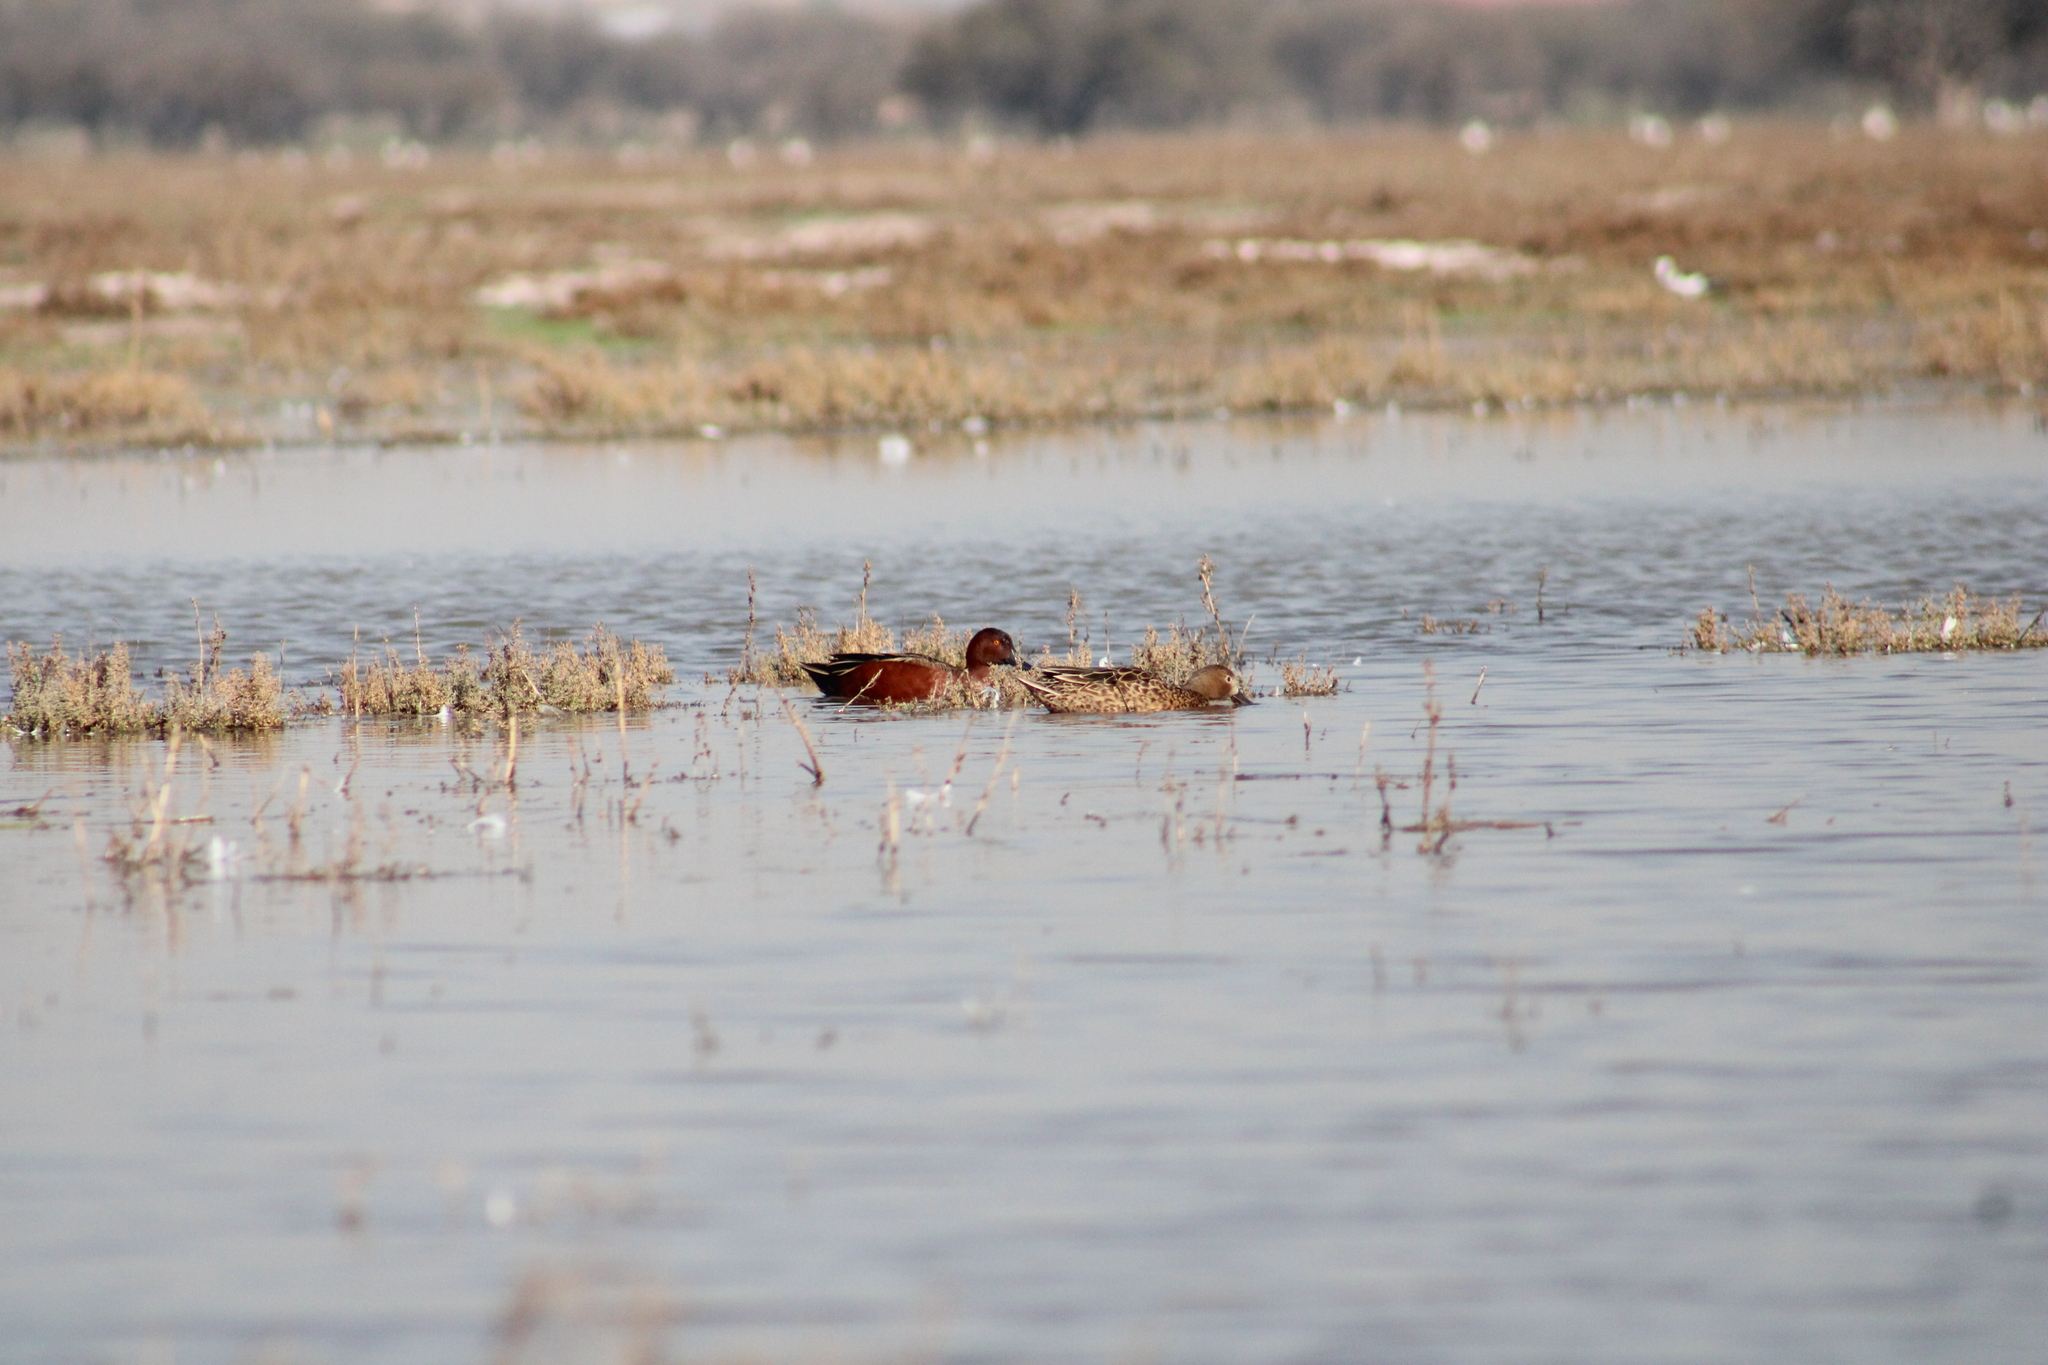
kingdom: Animalia
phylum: Chordata
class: Aves
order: Anseriformes
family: Anatidae
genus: Spatula
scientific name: Spatula cyanoptera
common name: Cinnamon teal
